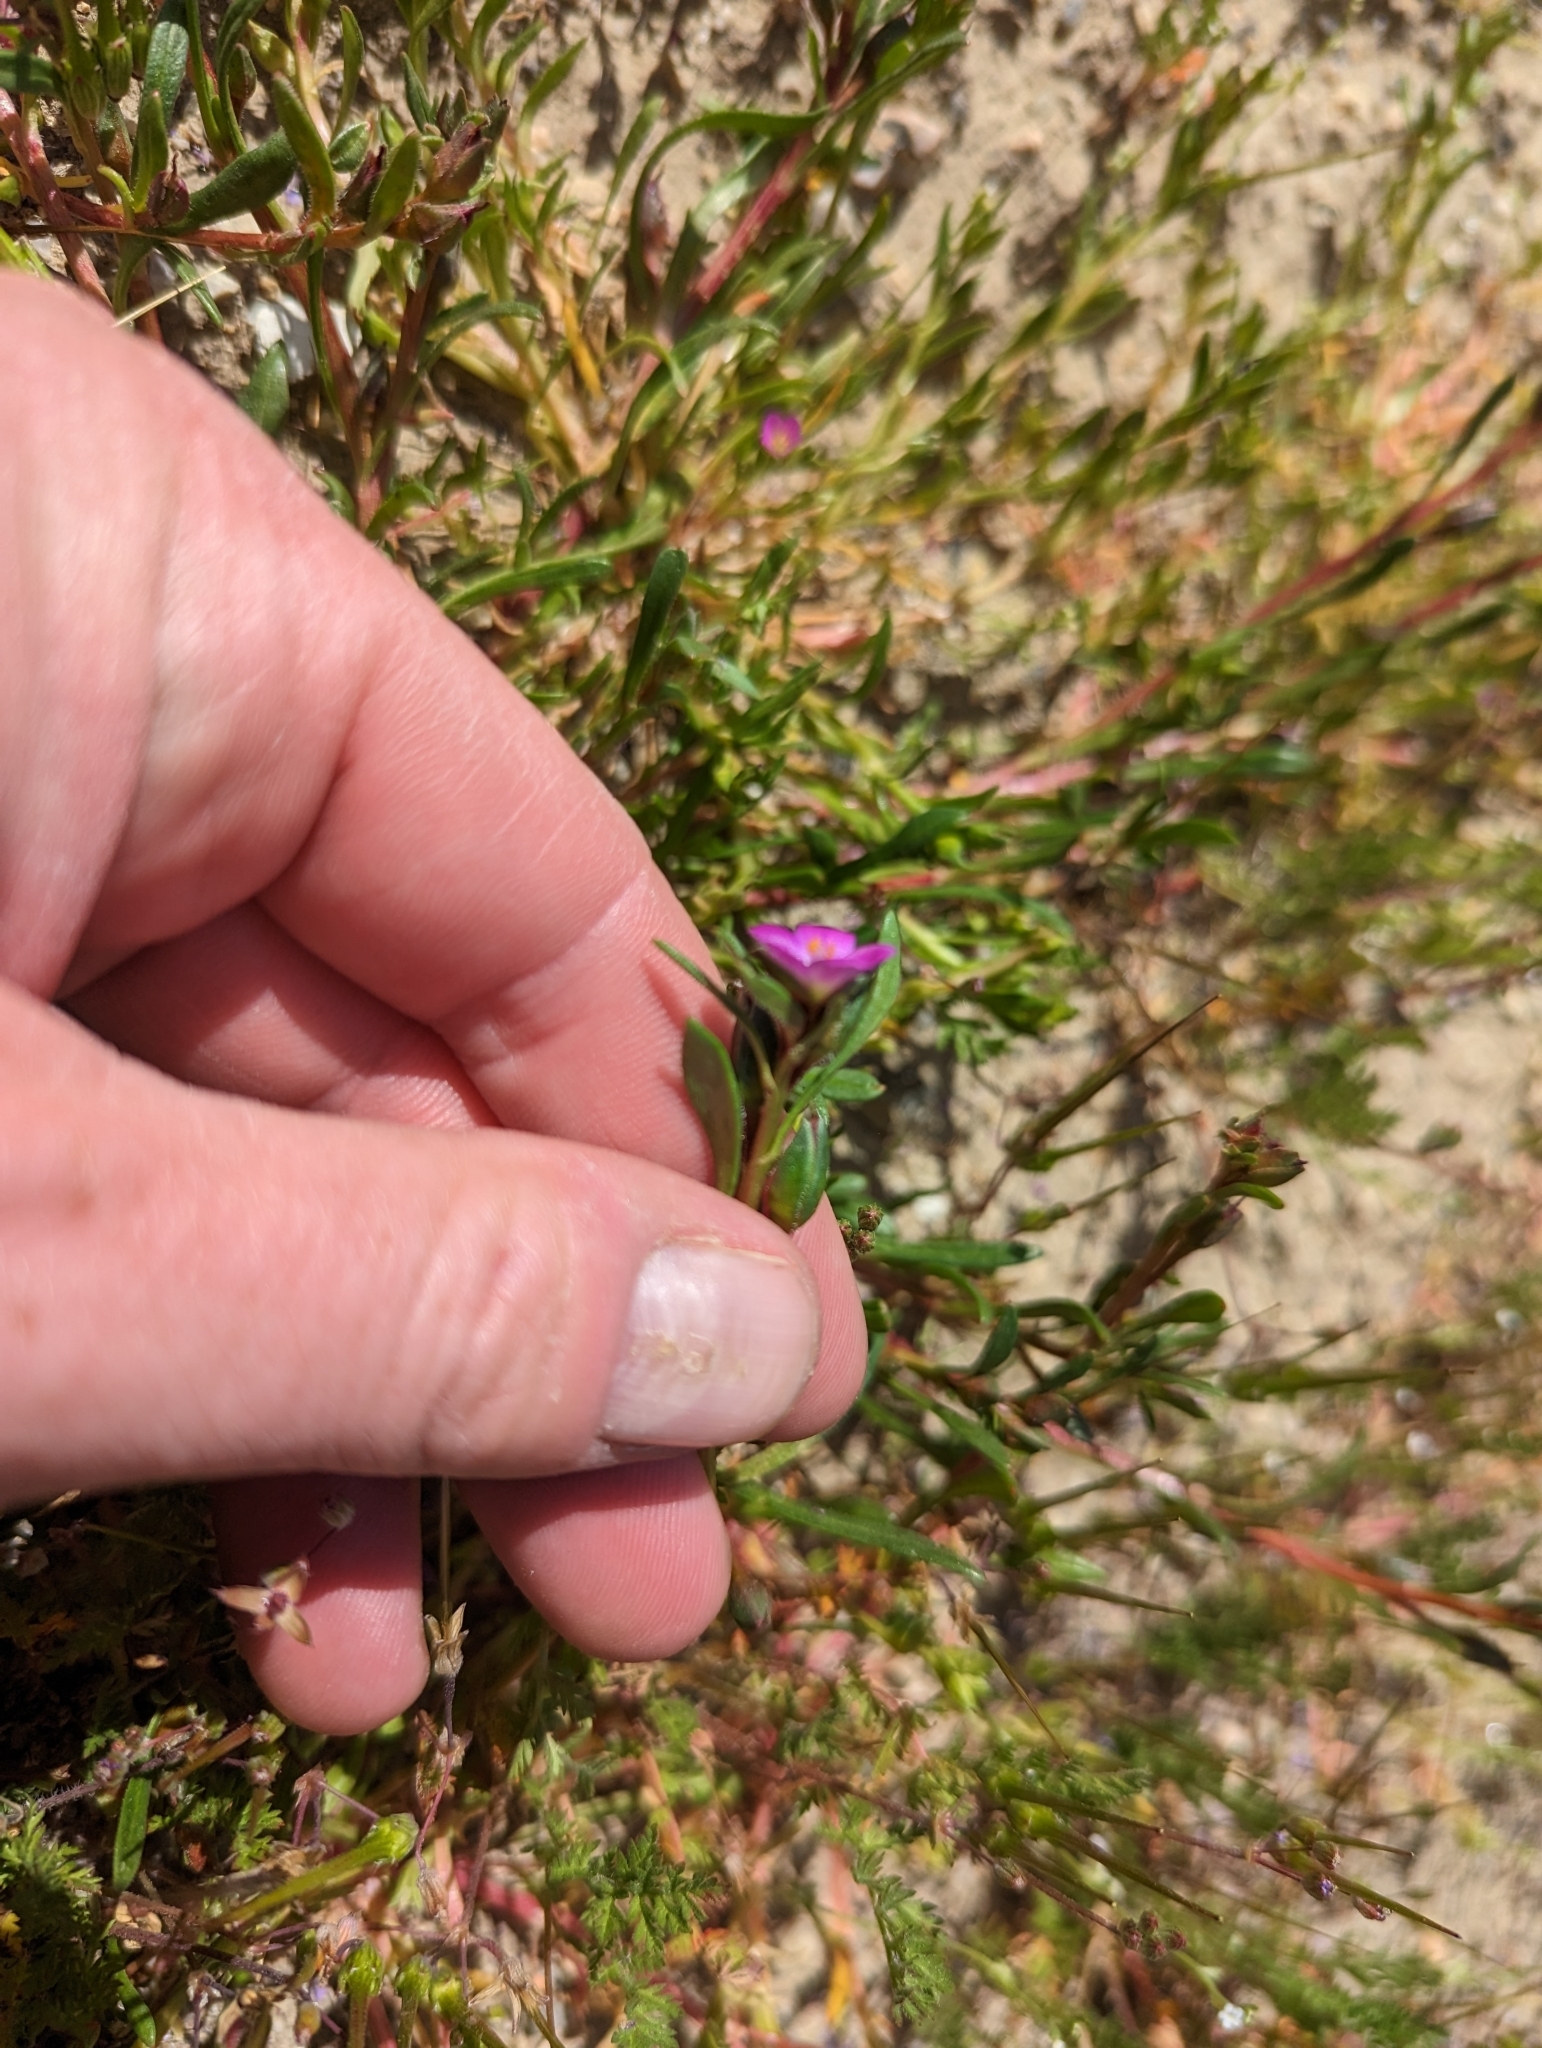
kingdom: Plantae
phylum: Tracheophyta
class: Magnoliopsida
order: Caryophyllales
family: Montiaceae
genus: Calandrinia
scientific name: Calandrinia menziesii
